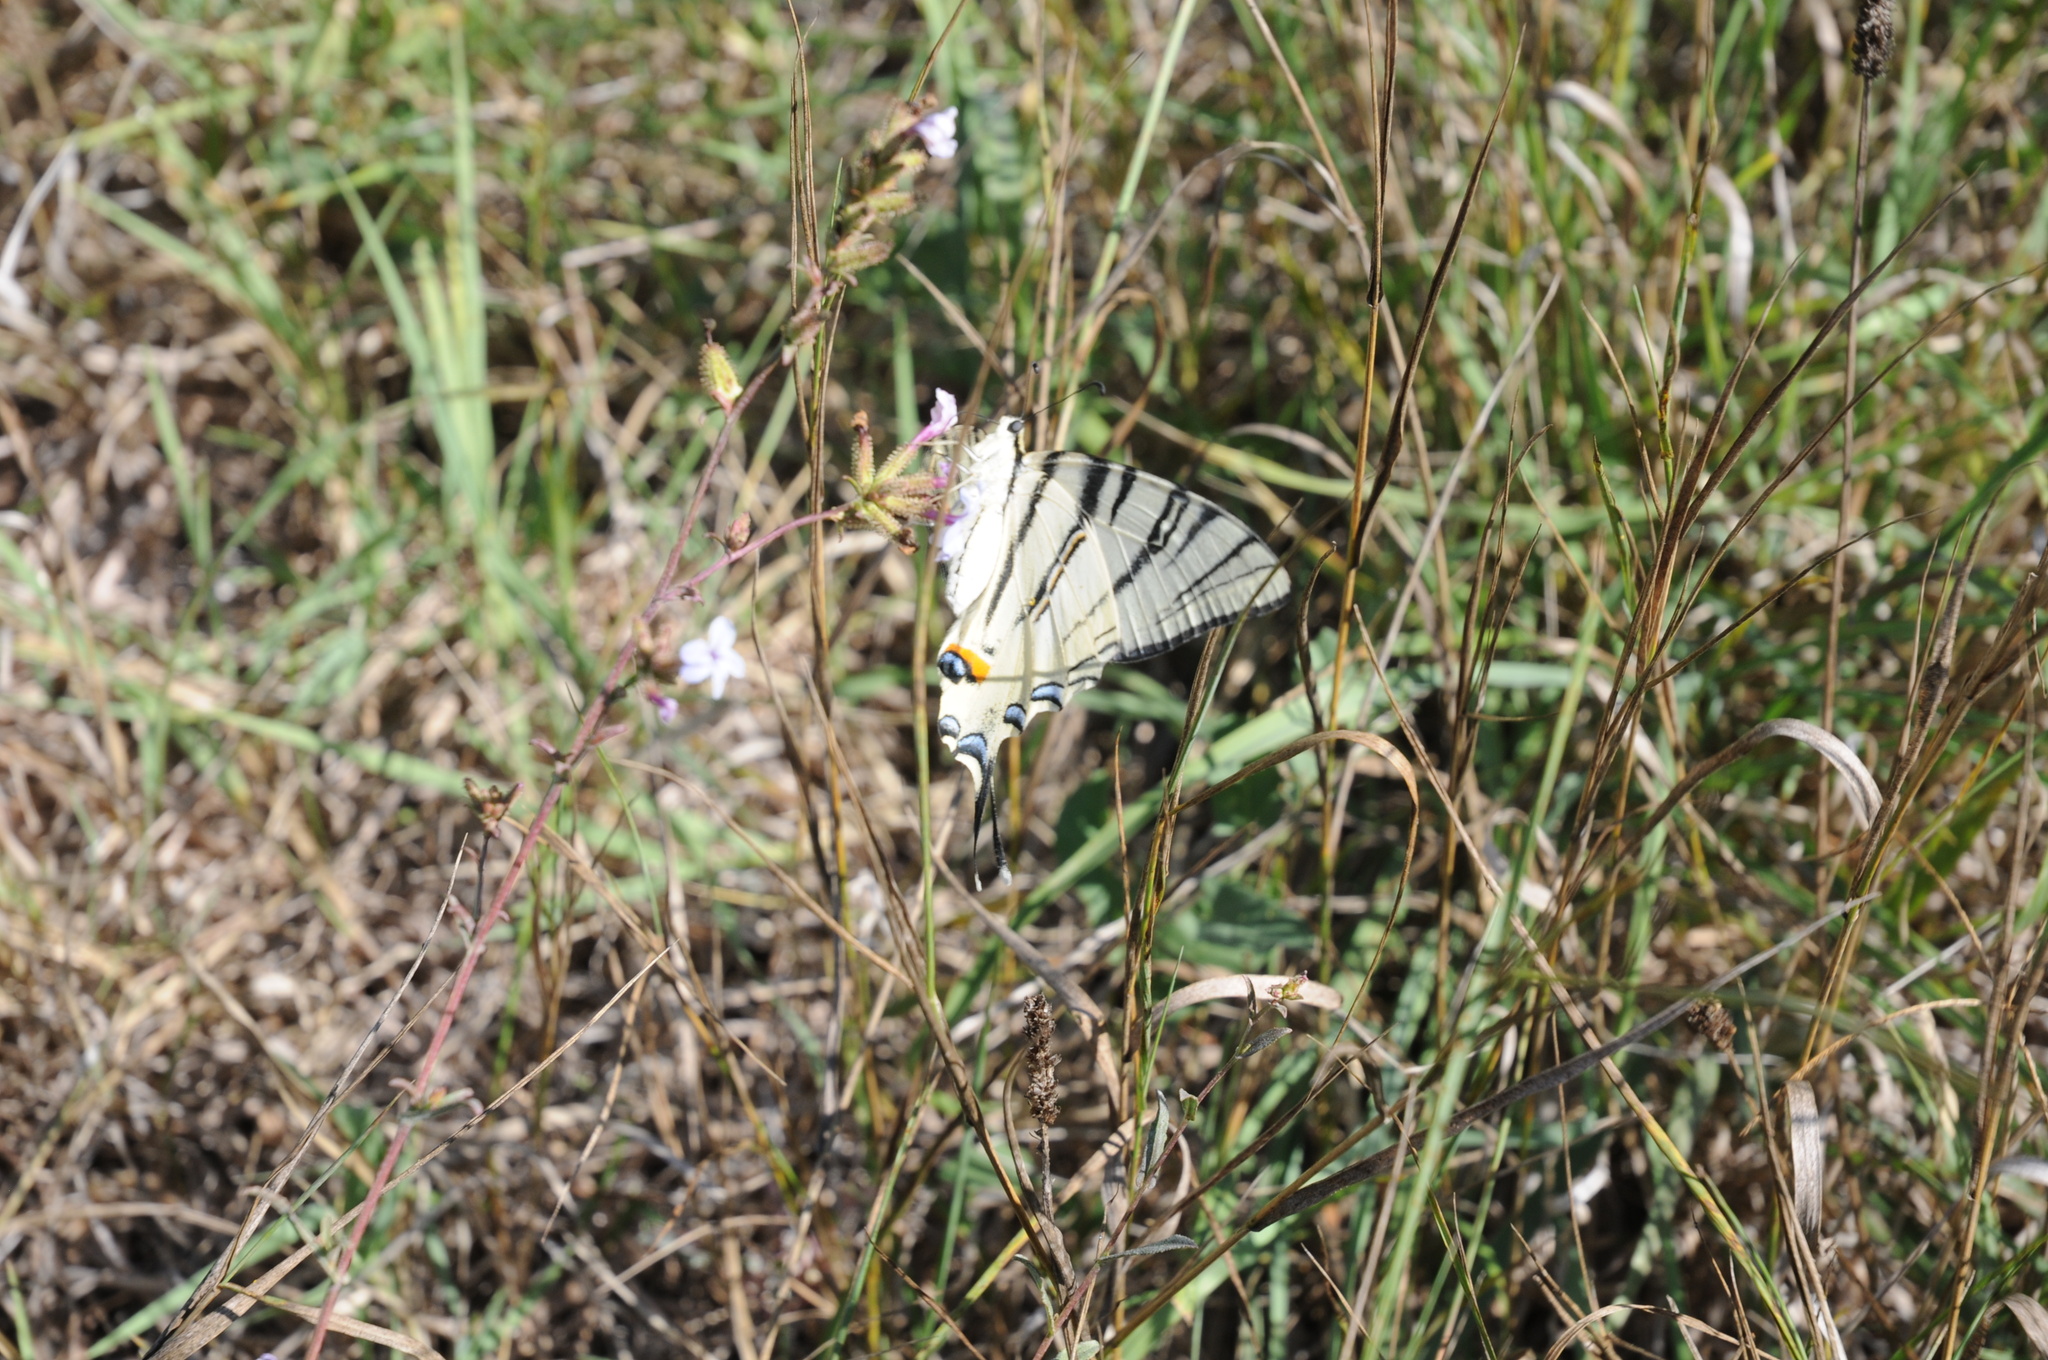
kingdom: Animalia
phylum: Arthropoda
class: Insecta
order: Lepidoptera
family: Papilionidae
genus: Iphiclides
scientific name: Iphiclides podalirius
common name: Scarce swallowtail
